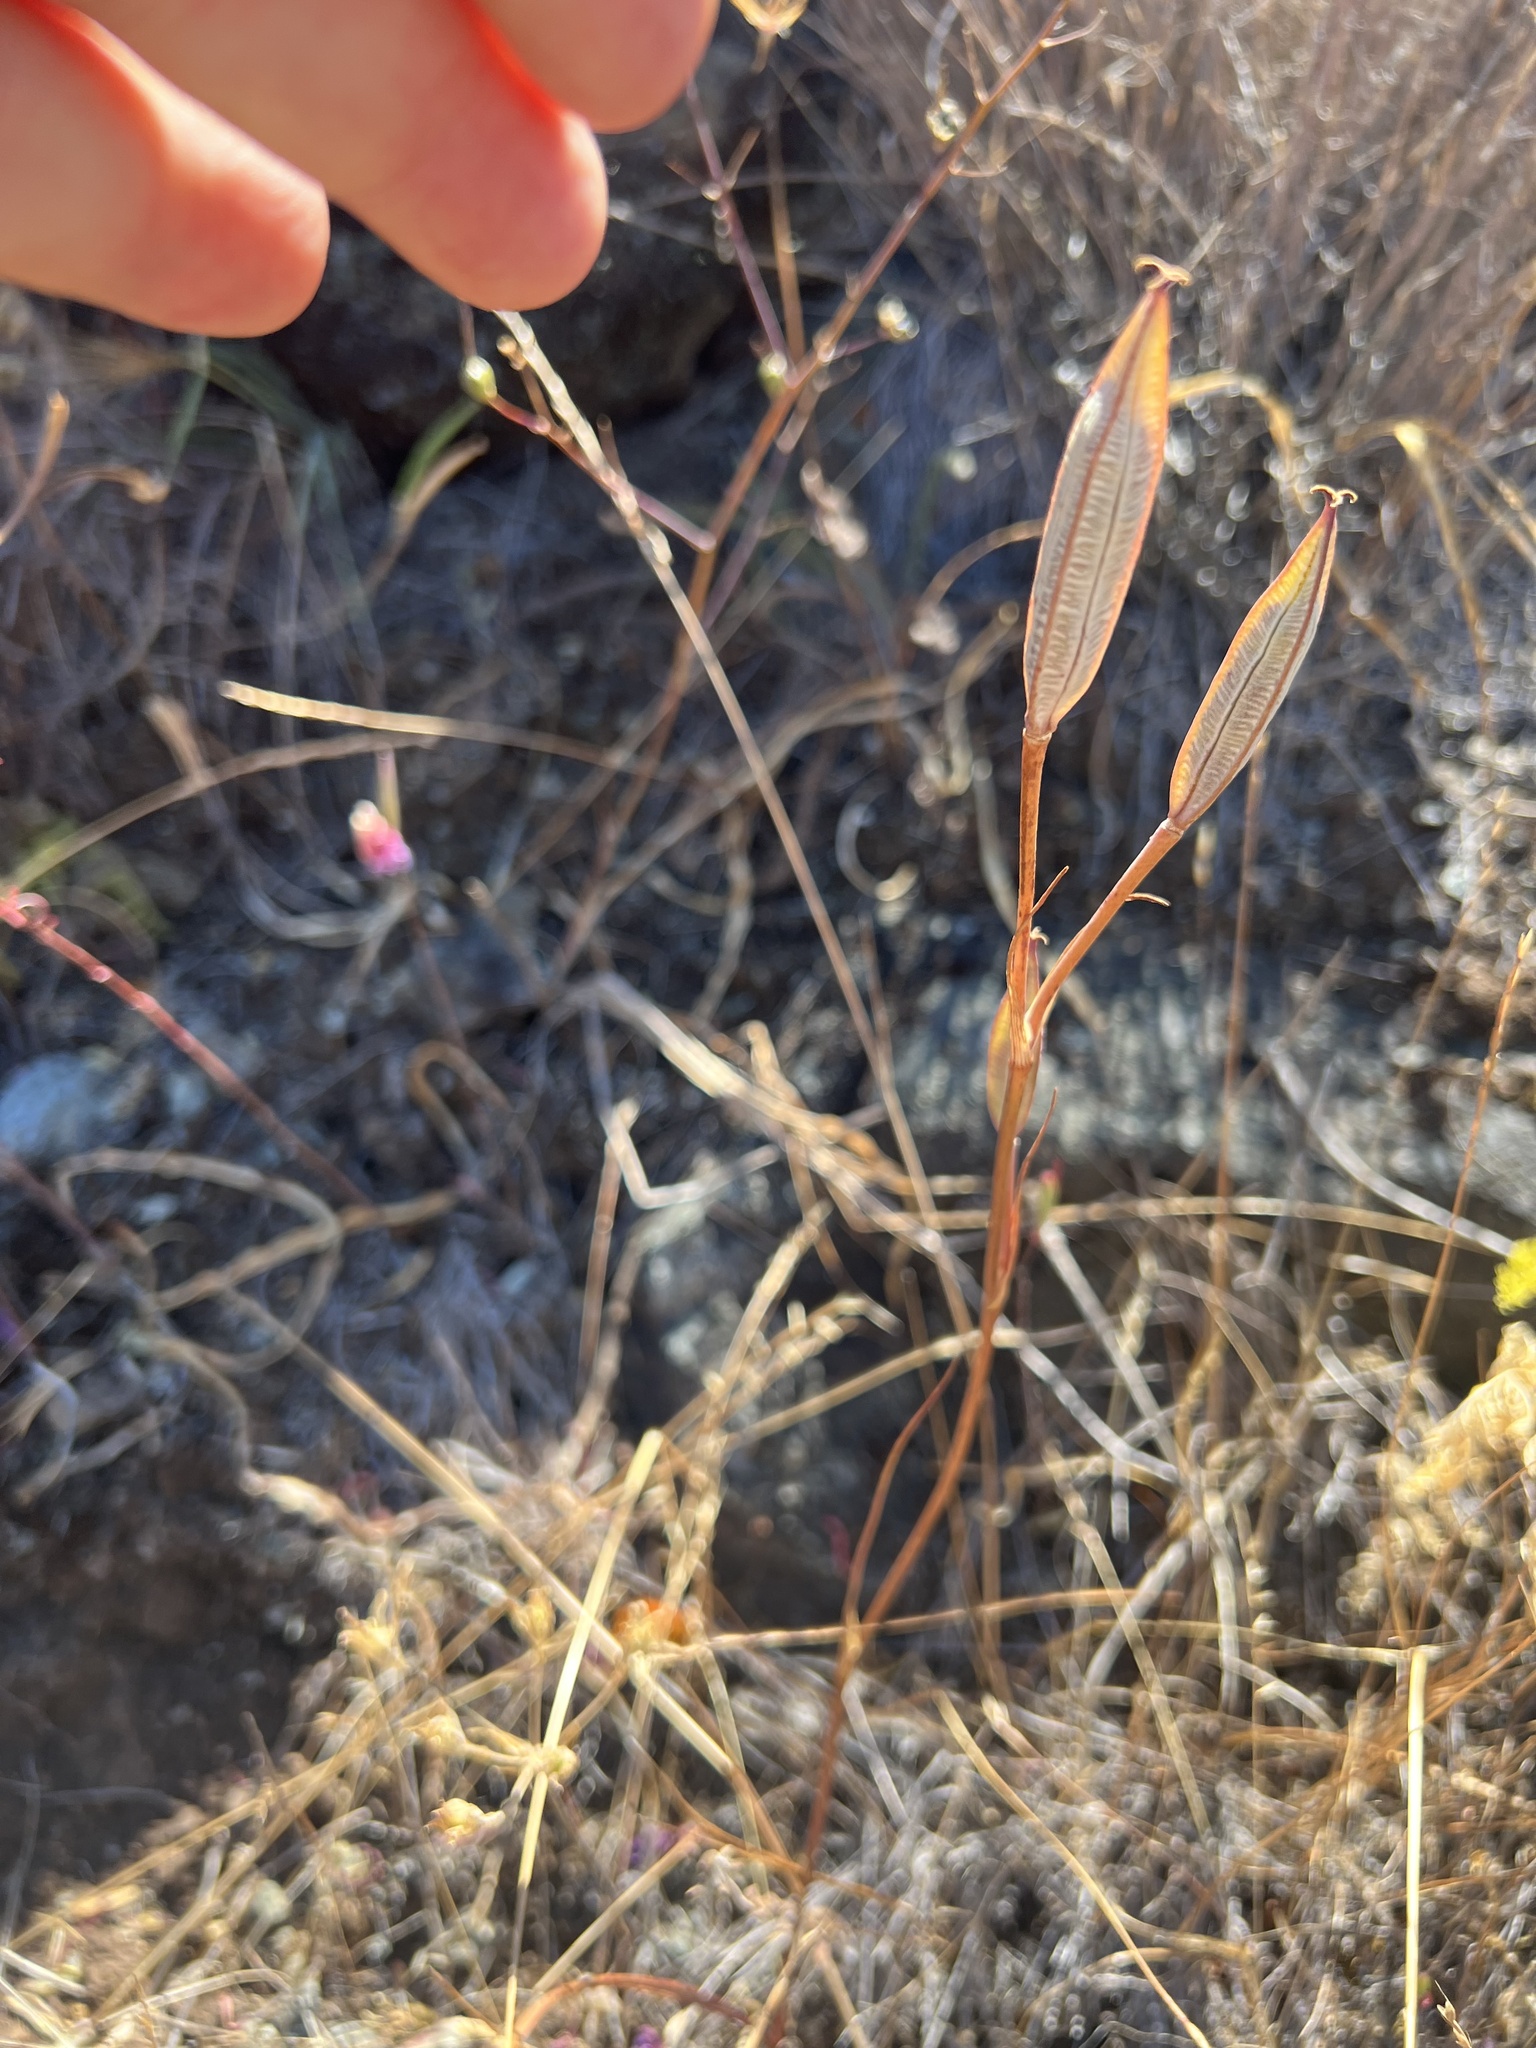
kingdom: Plantae
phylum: Tracheophyta
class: Liliopsida
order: Liliales
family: Liliaceae
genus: Calochortus
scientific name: Calochortus tiburonensis
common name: Tiburon mariposa-lily
